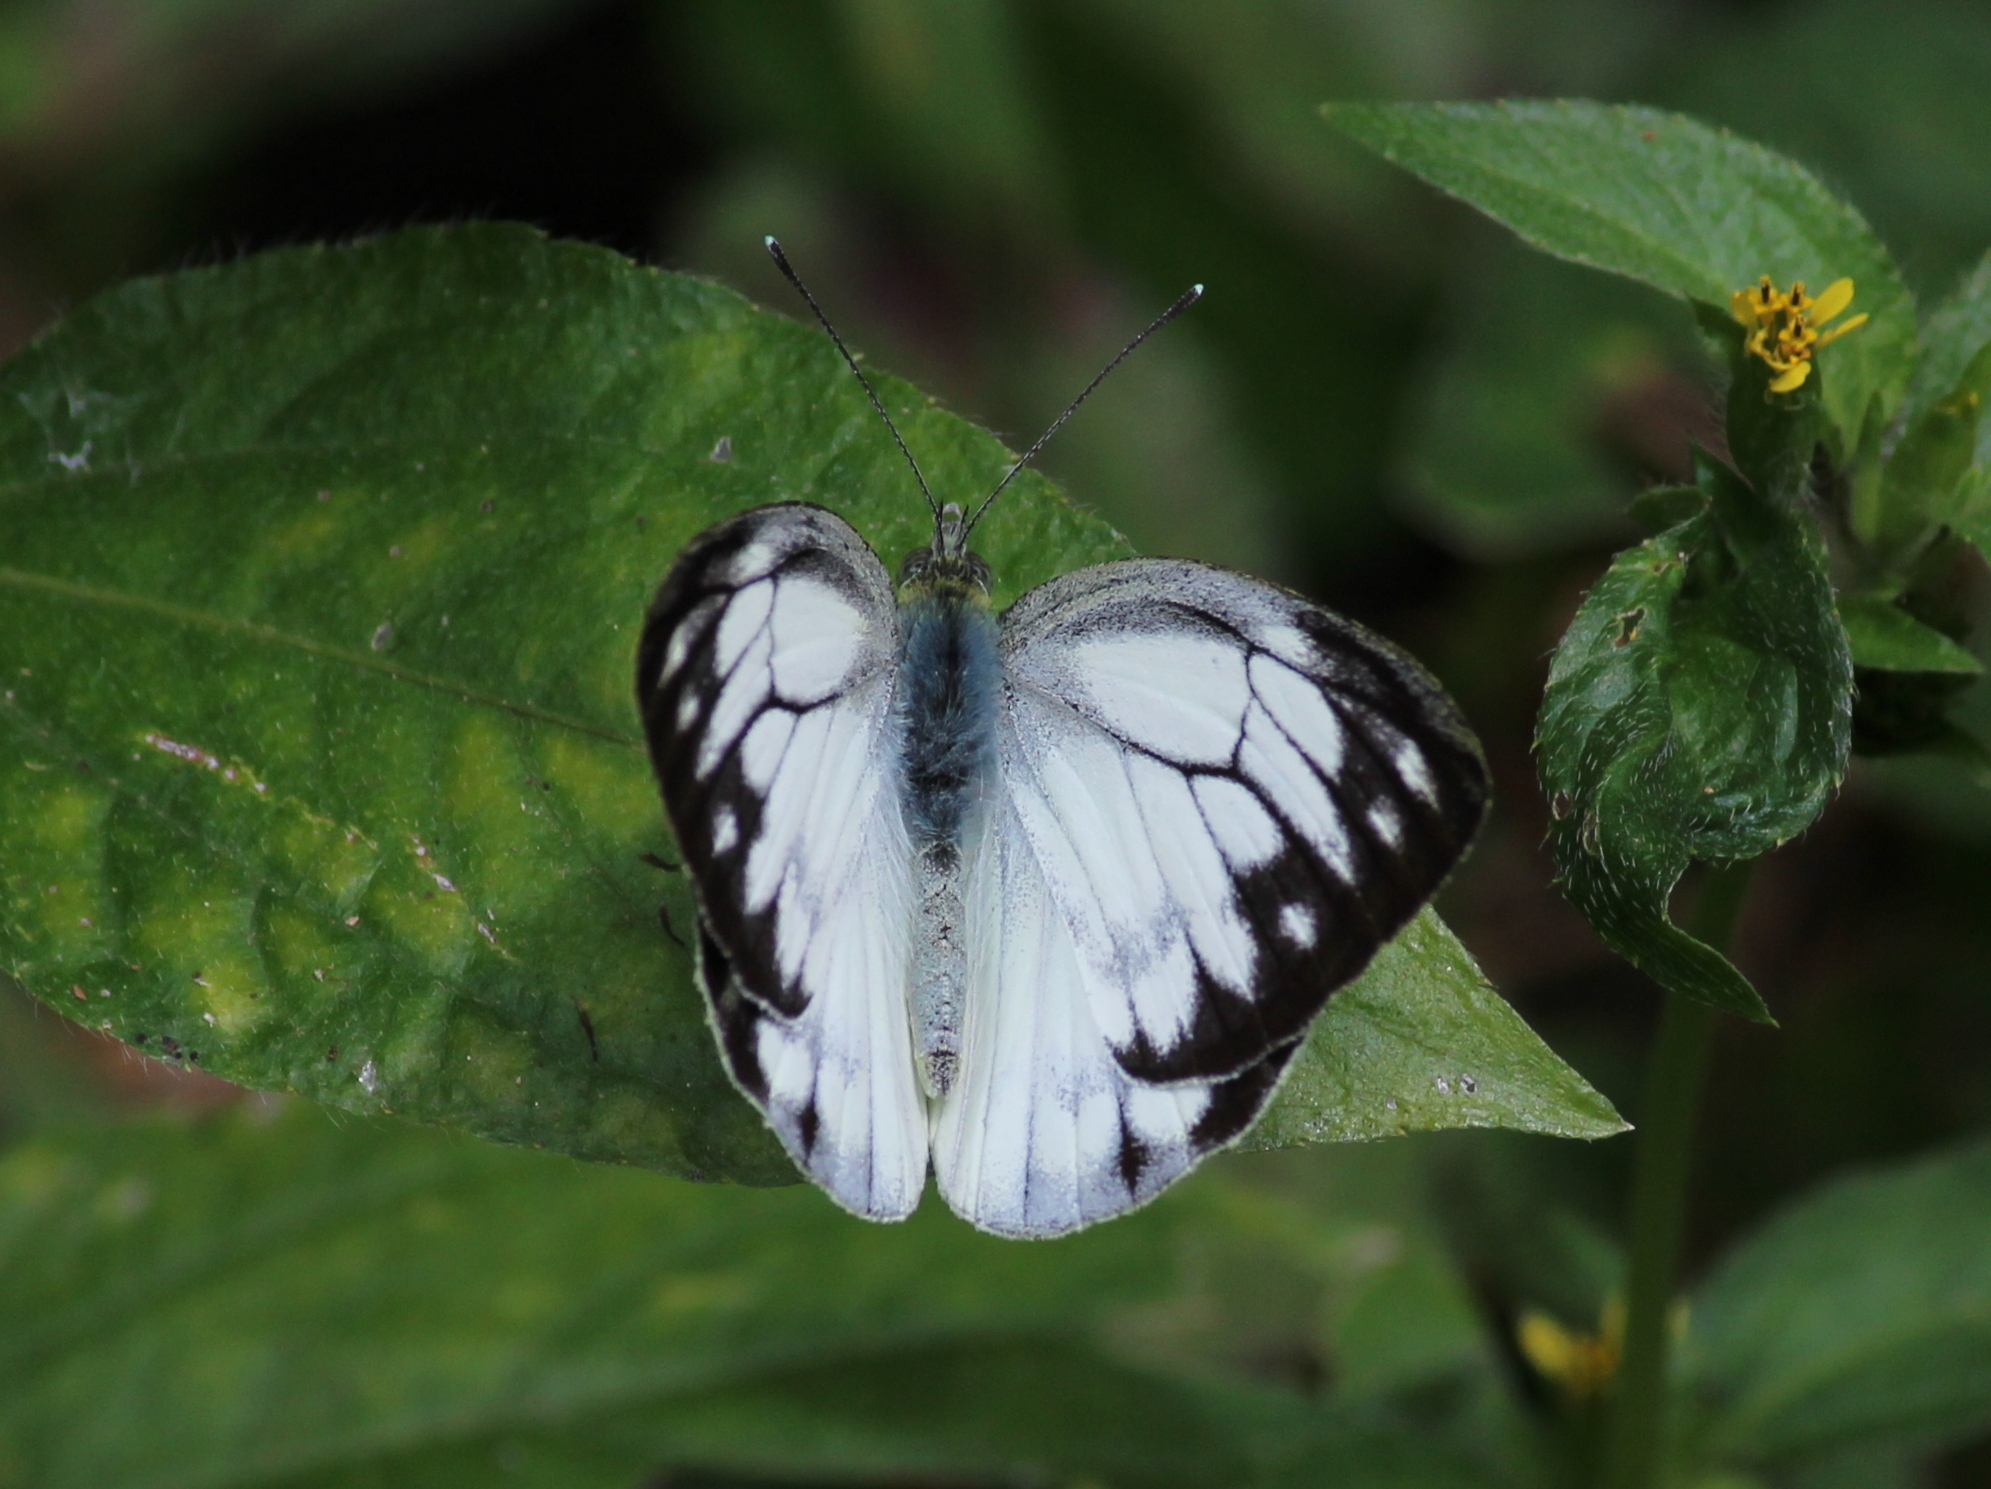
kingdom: Animalia
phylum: Arthropoda
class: Insecta
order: Lepidoptera
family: Pieridae
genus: Cepora
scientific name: Cepora nerissa
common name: Common gull
